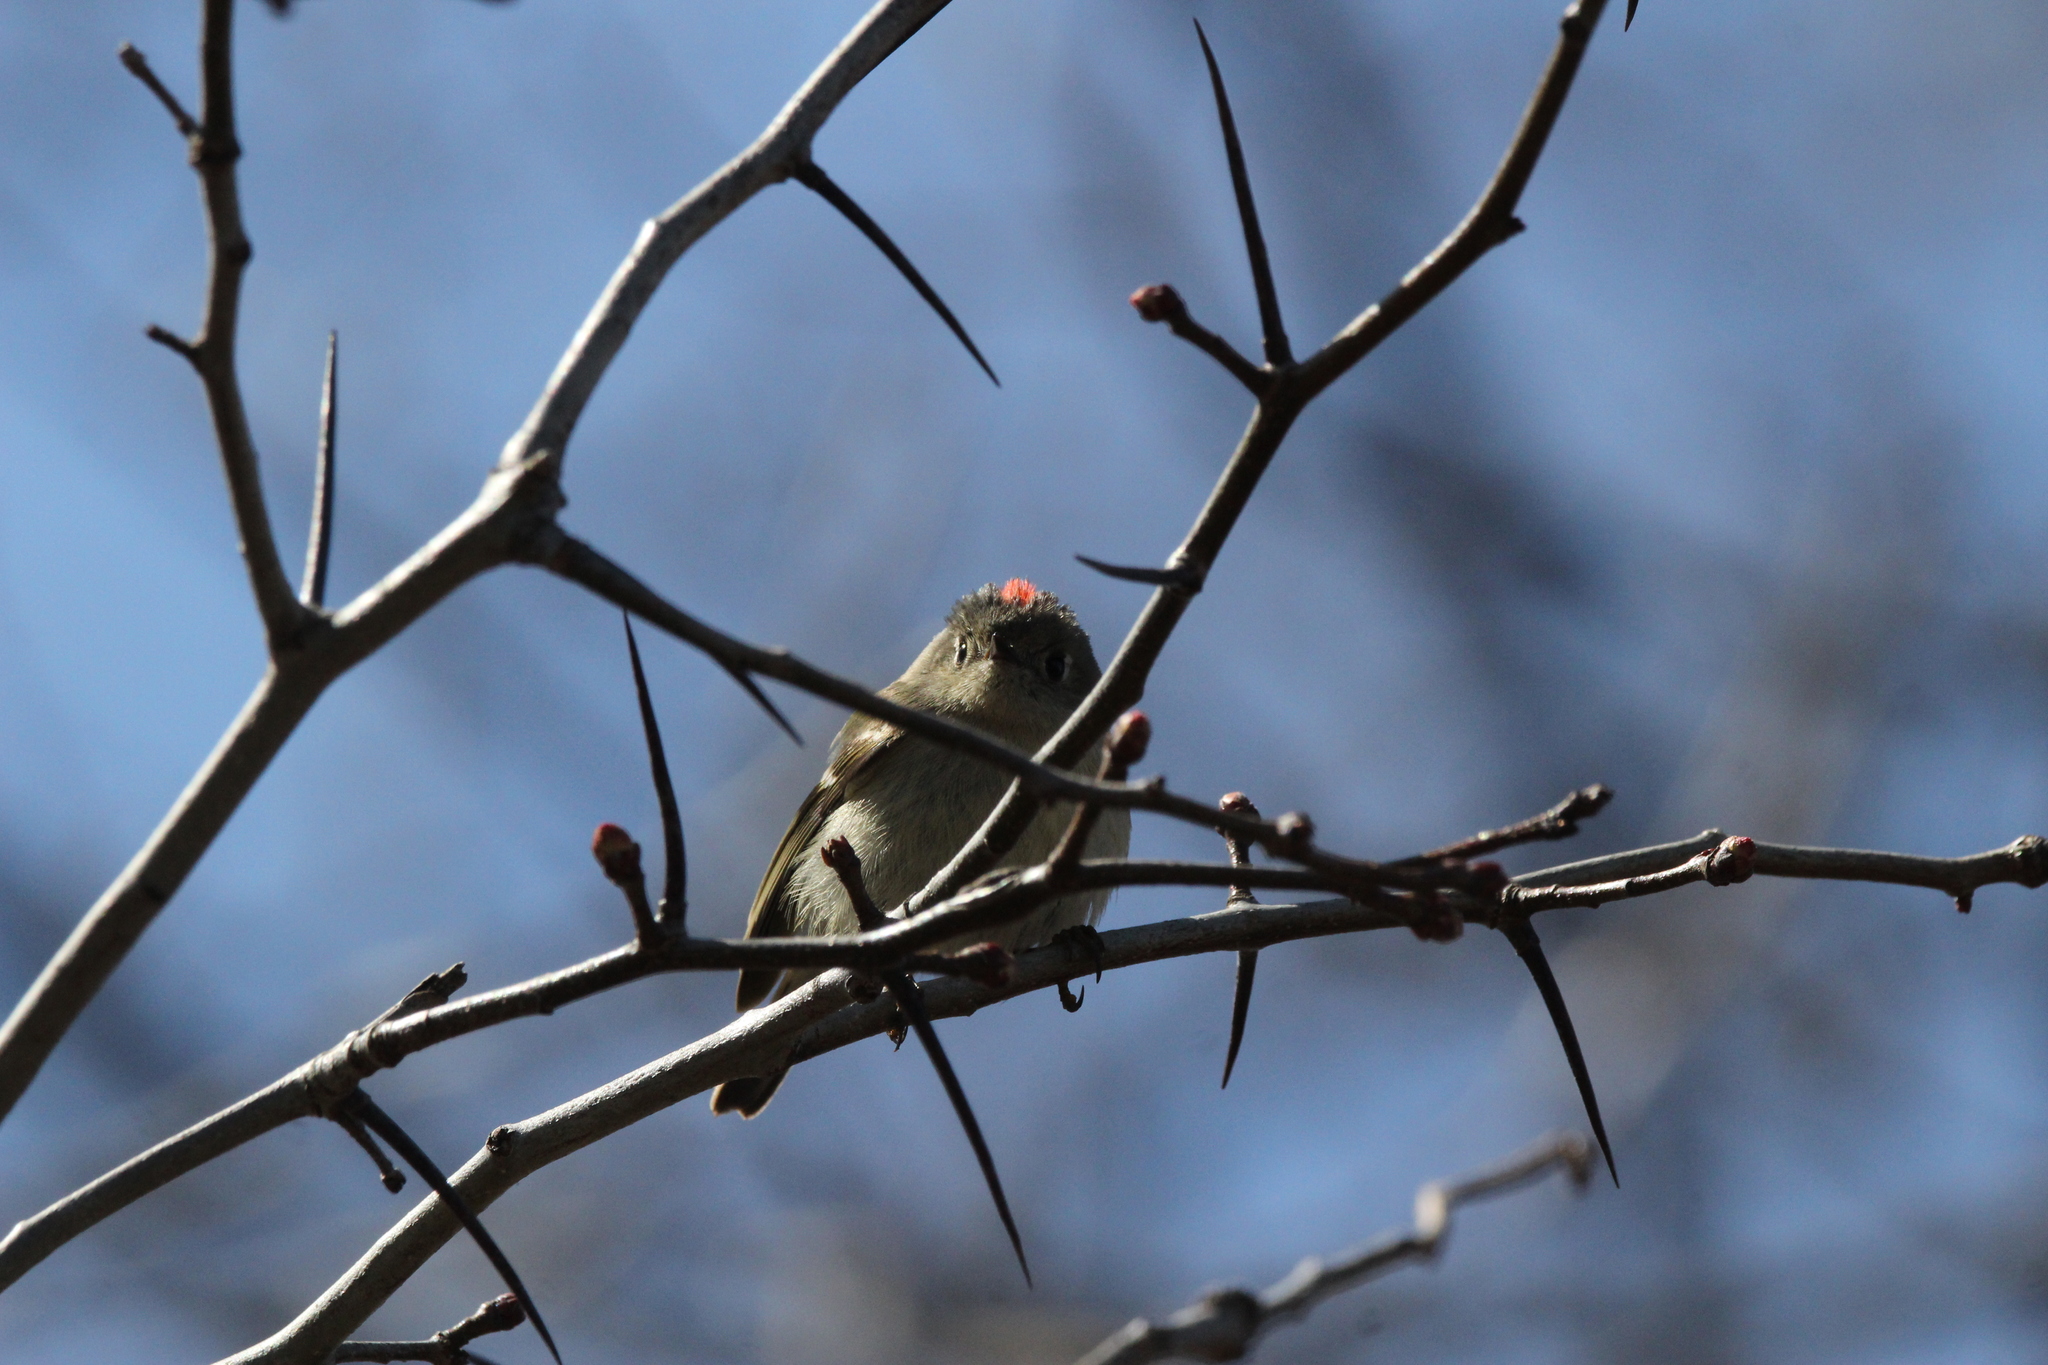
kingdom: Animalia
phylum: Chordata
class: Aves
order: Passeriformes
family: Regulidae
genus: Regulus
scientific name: Regulus calendula
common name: Ruby-crowned kinglet
